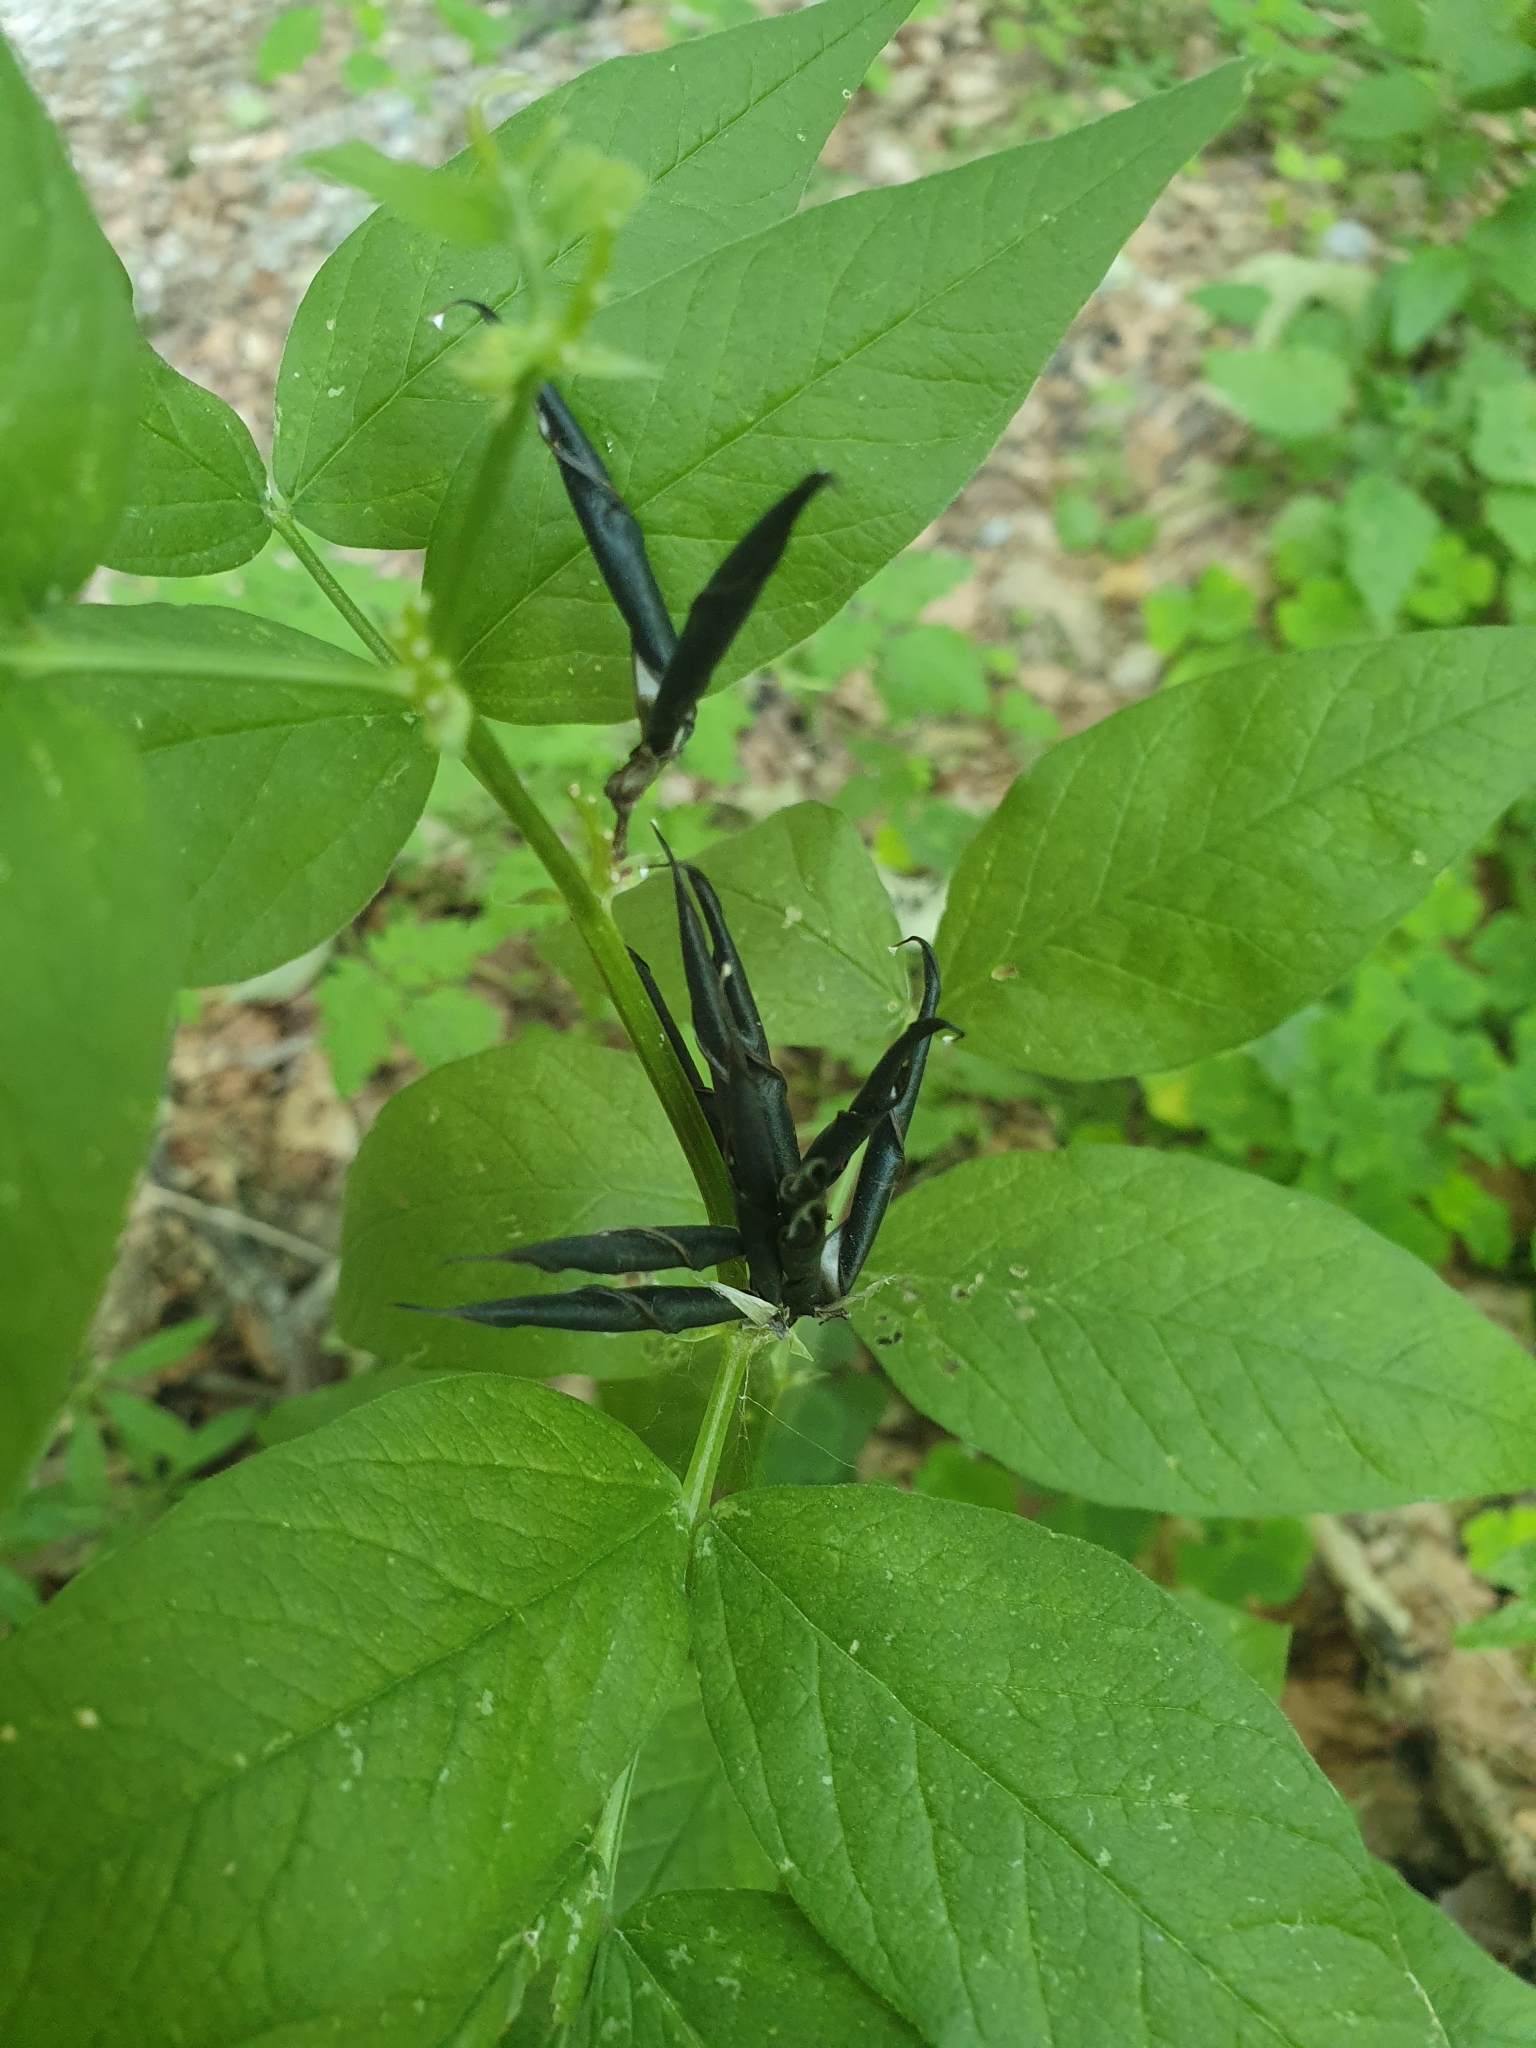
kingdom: Plantae
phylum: Tracheophyta
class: Magnoliopsida
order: Fabales
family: Fabaceae
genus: Lathyrus
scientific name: Lathyrus vernus
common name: Spring pea
